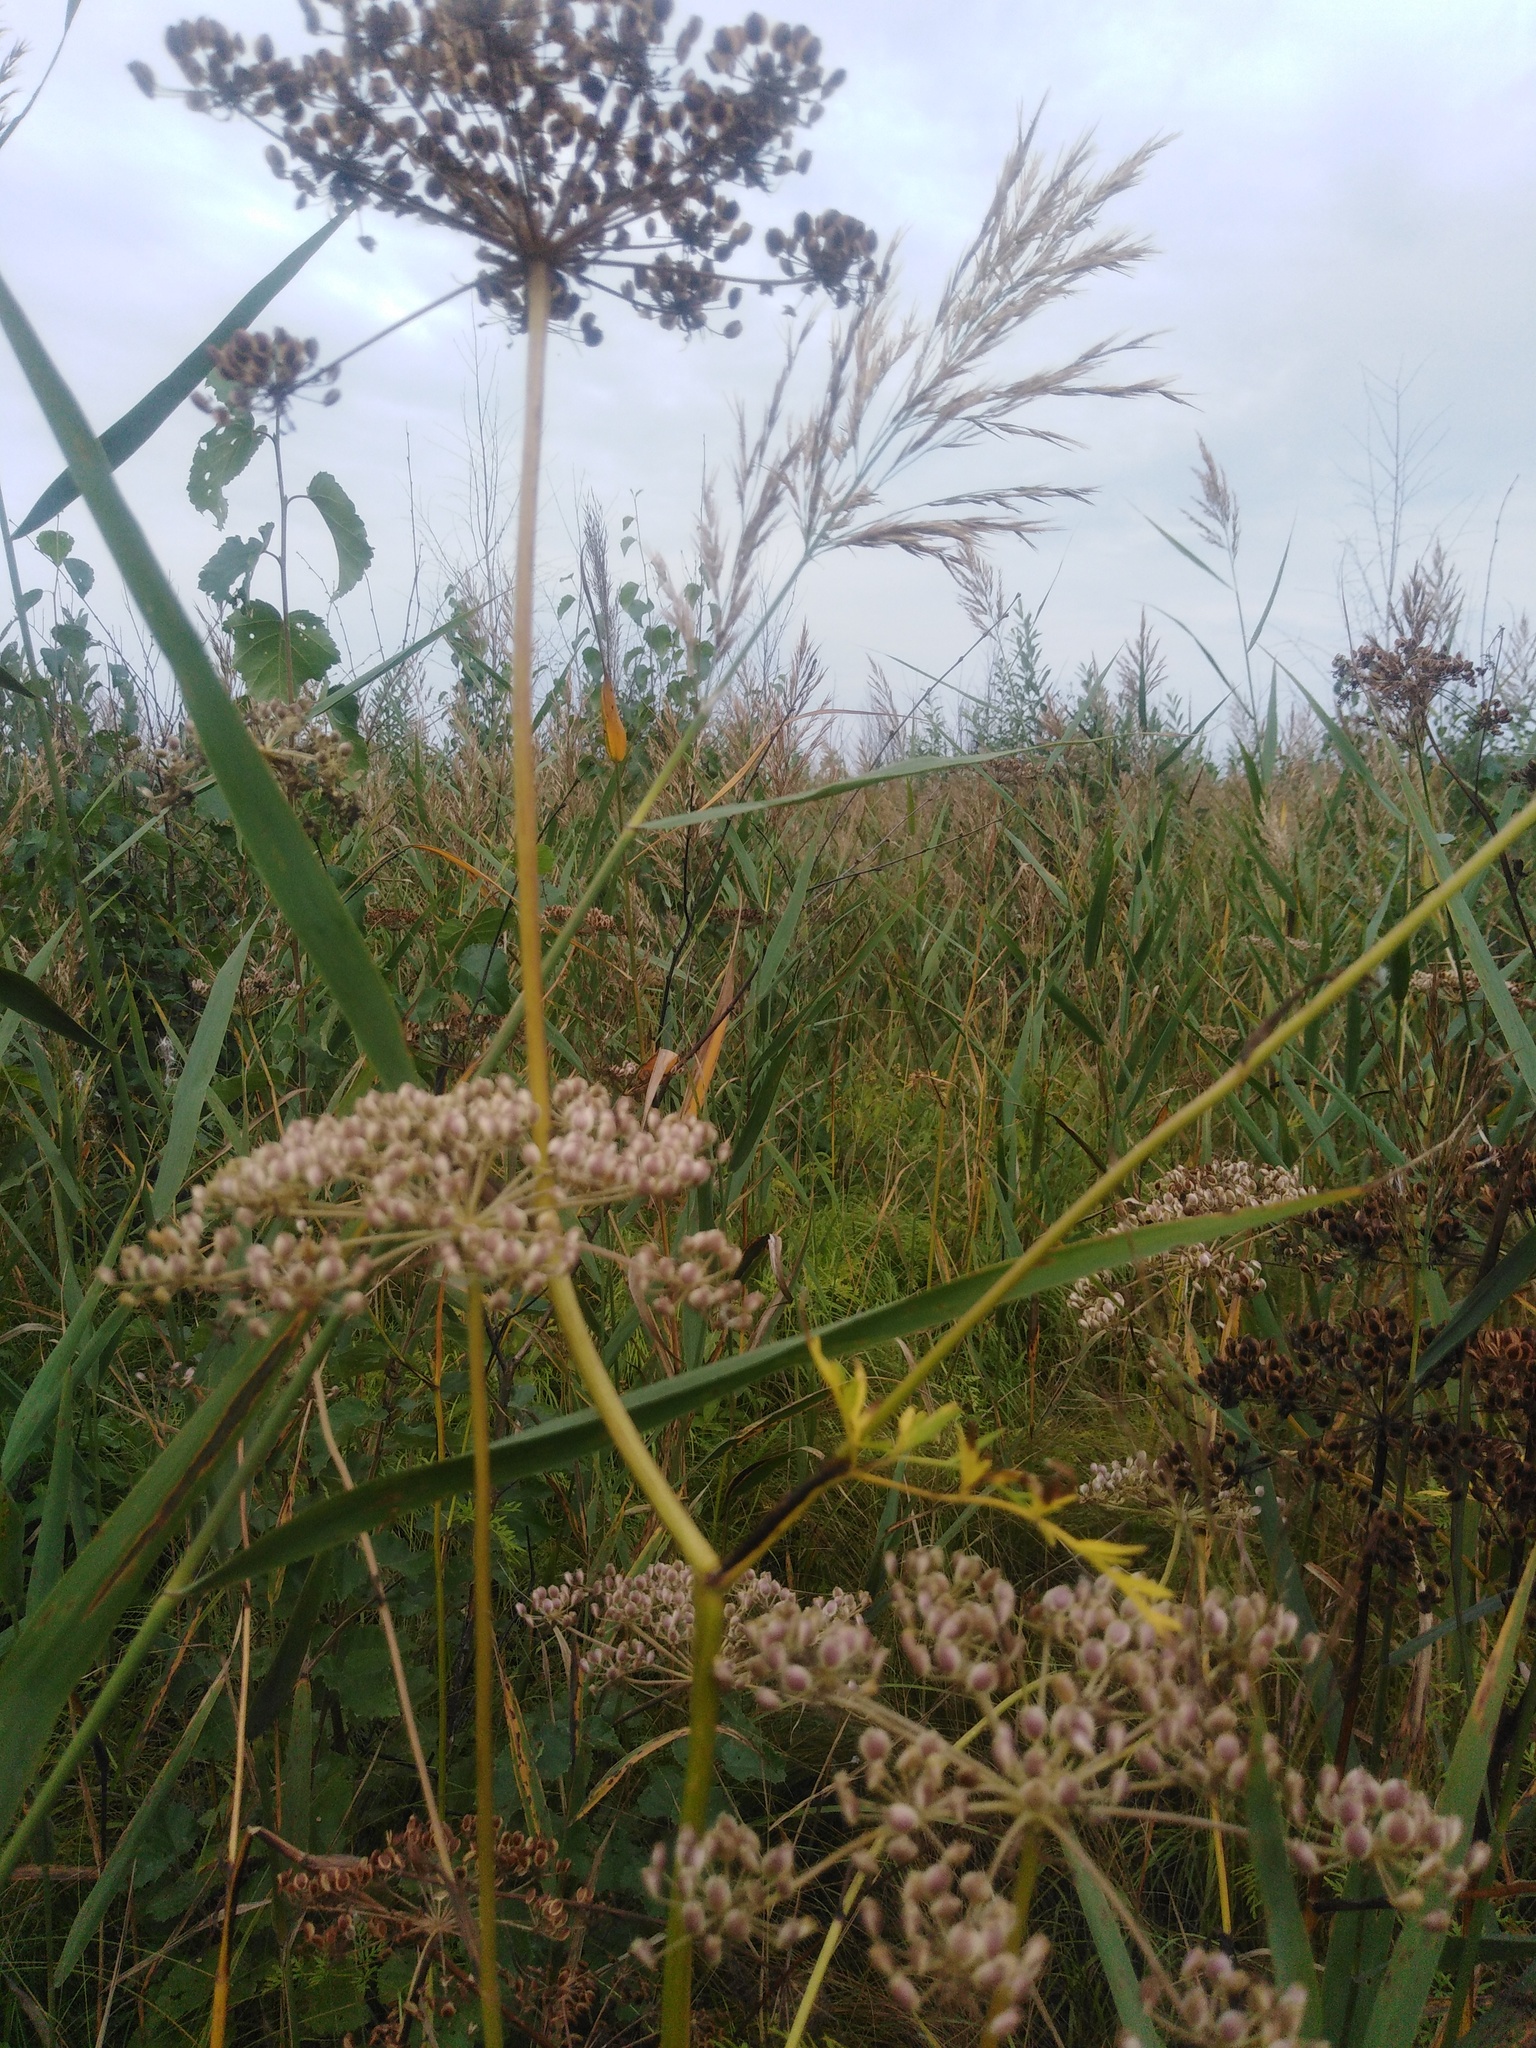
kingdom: Plantae
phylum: Tracheophyta
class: Magnoliopsida
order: Apiales
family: Apiaceae
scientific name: Apiaceae
